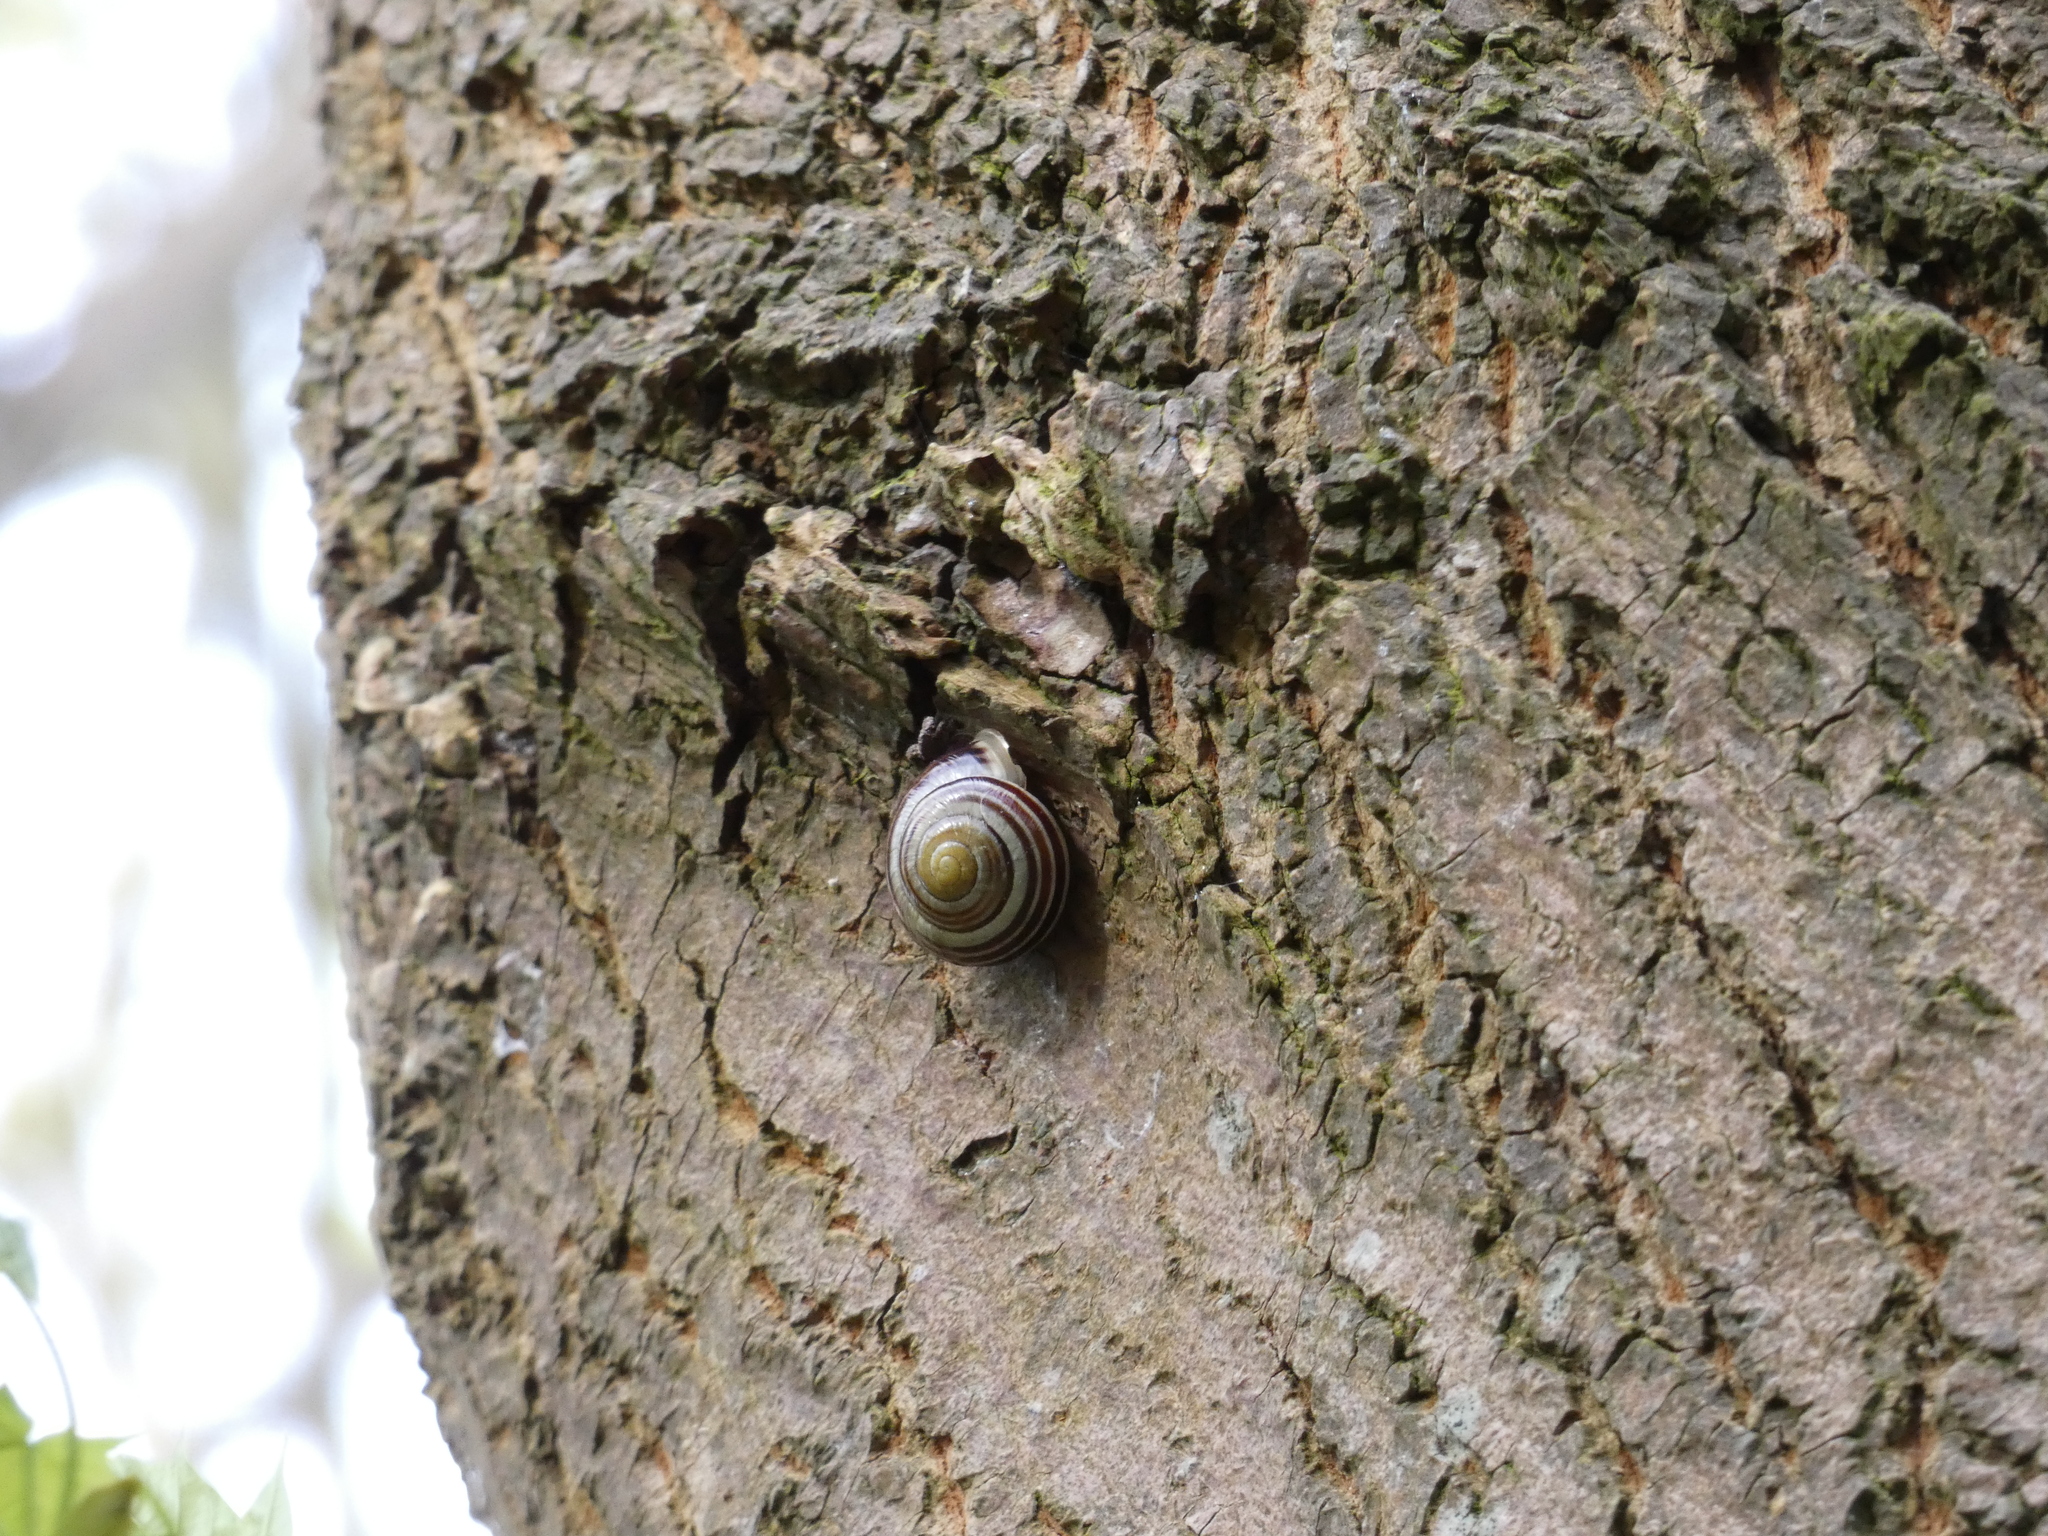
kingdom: Animalia
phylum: Mollusca
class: Gastropoda
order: Stylommatophora
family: Helicidae
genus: Cepaea
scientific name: Cepaea hortensis
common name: White-lip gardensnail
